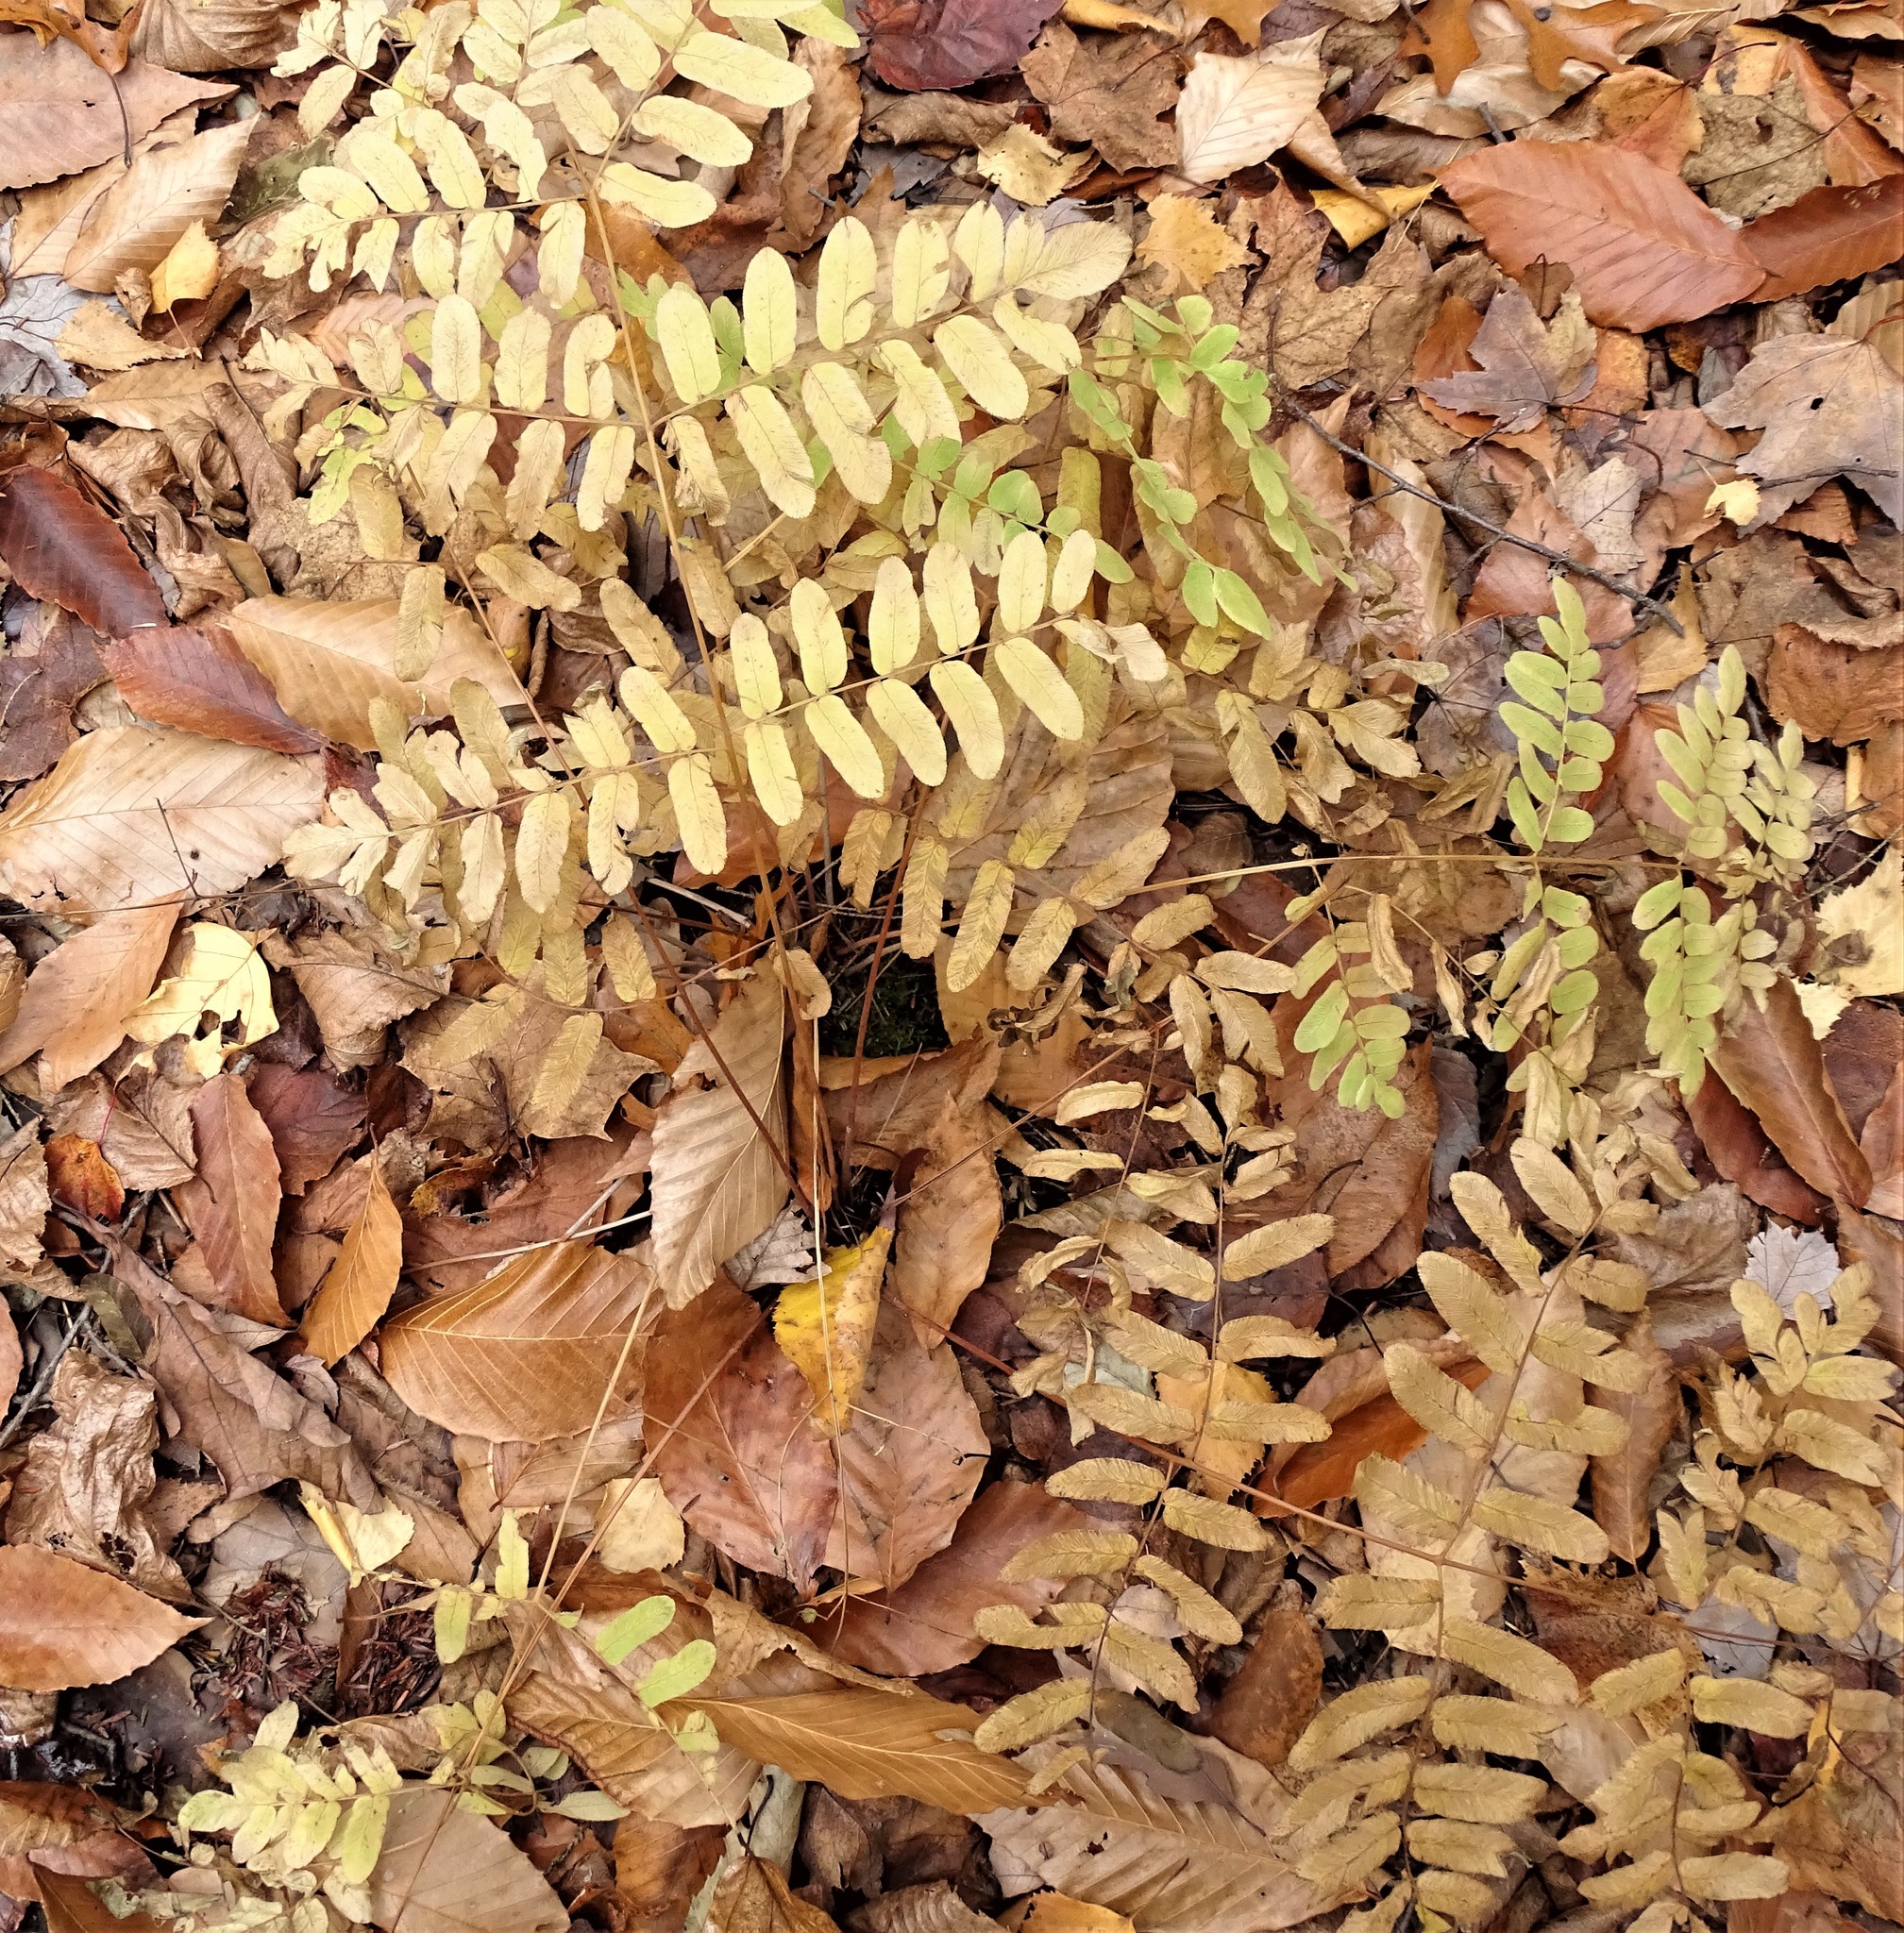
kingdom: Plantae
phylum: Tracheophyta
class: Polypodiopsida
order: Osmundales
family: Osmundaceae
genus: Osmunda
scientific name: Osmunda spectabilis
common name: American royal fern
